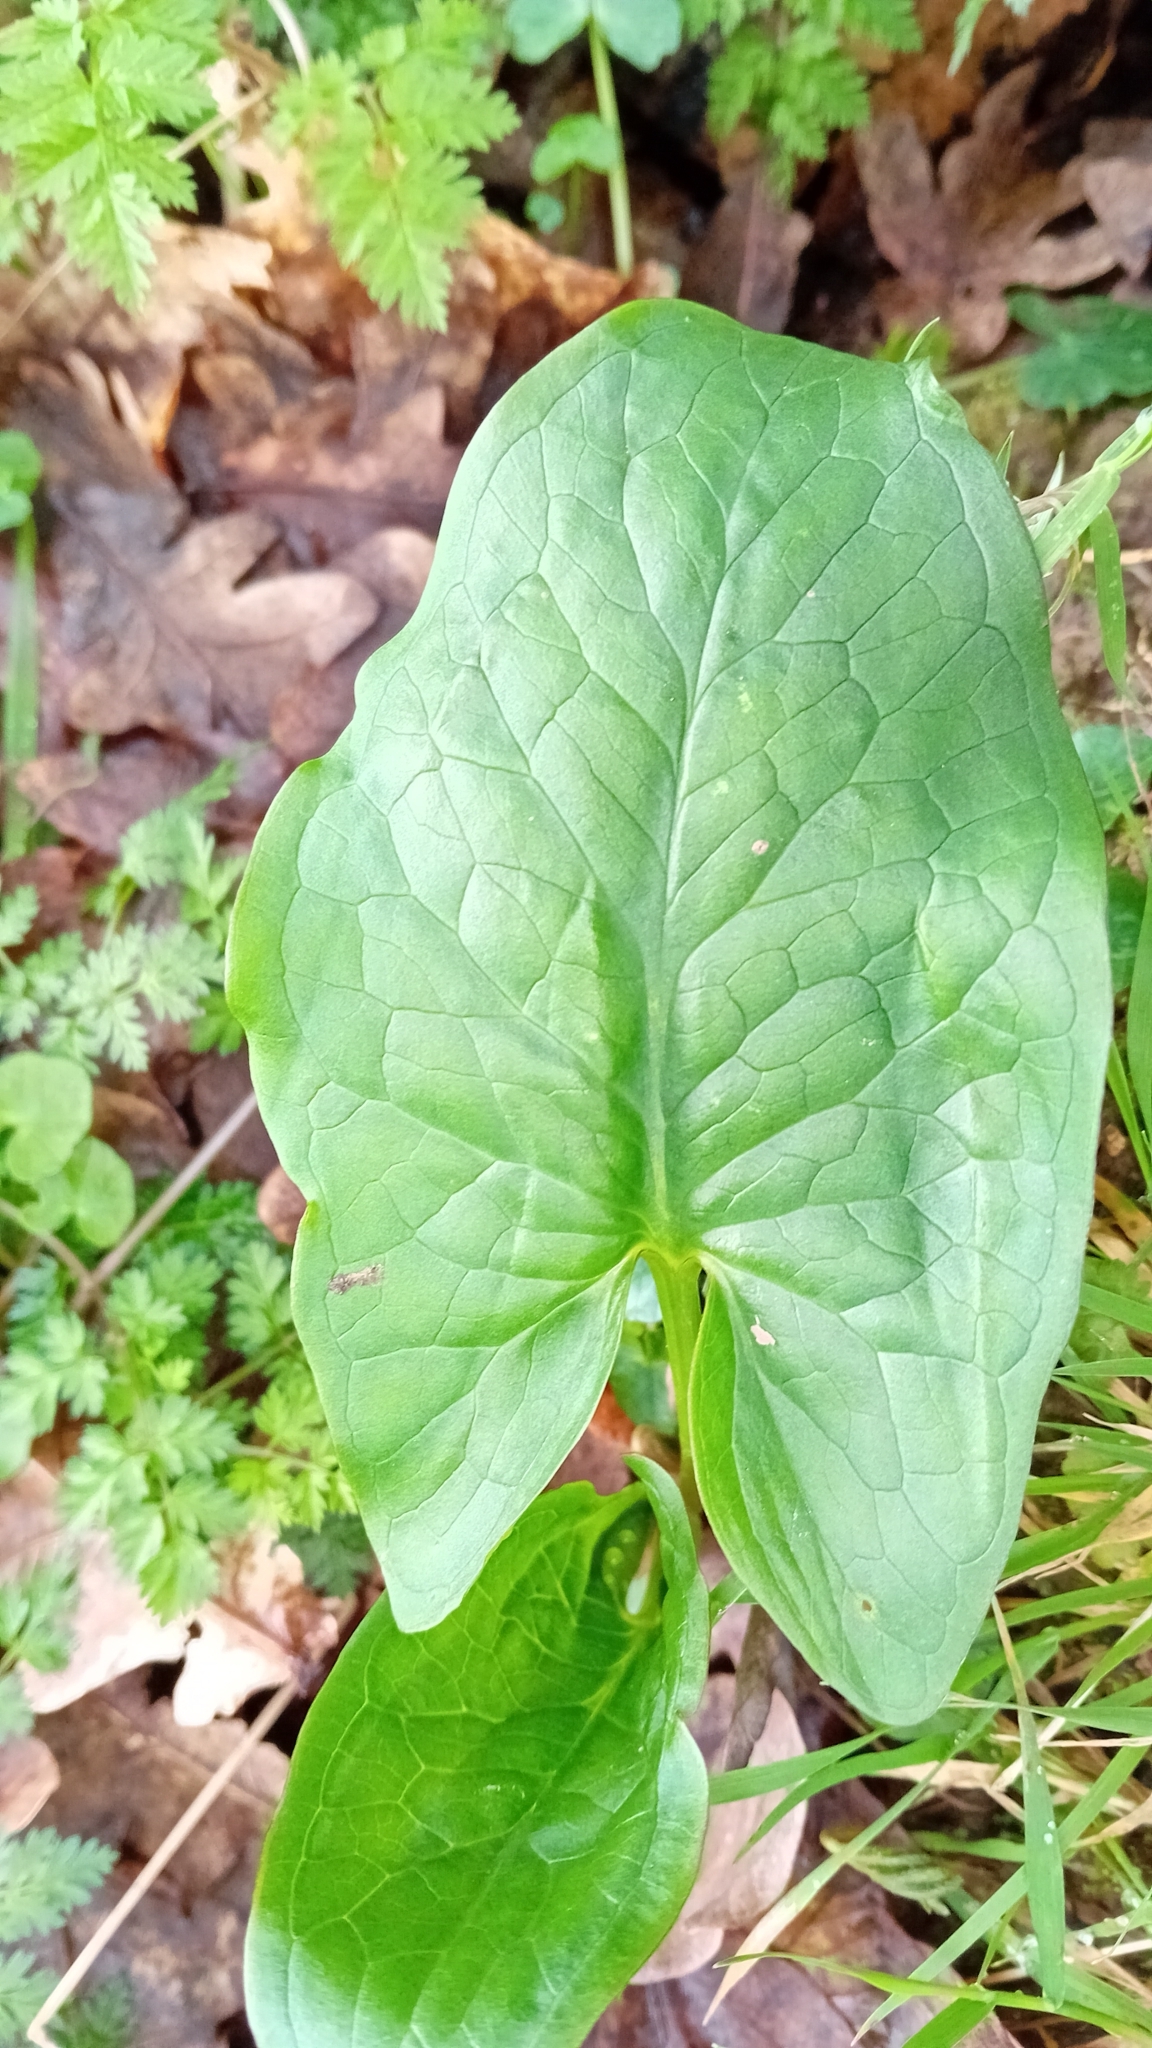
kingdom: Plantae
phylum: Tracheophyta
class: Liliopsida
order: Alismatales
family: Araceae
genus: Arum
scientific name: Arum maculatum
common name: Lords-and-ladies
